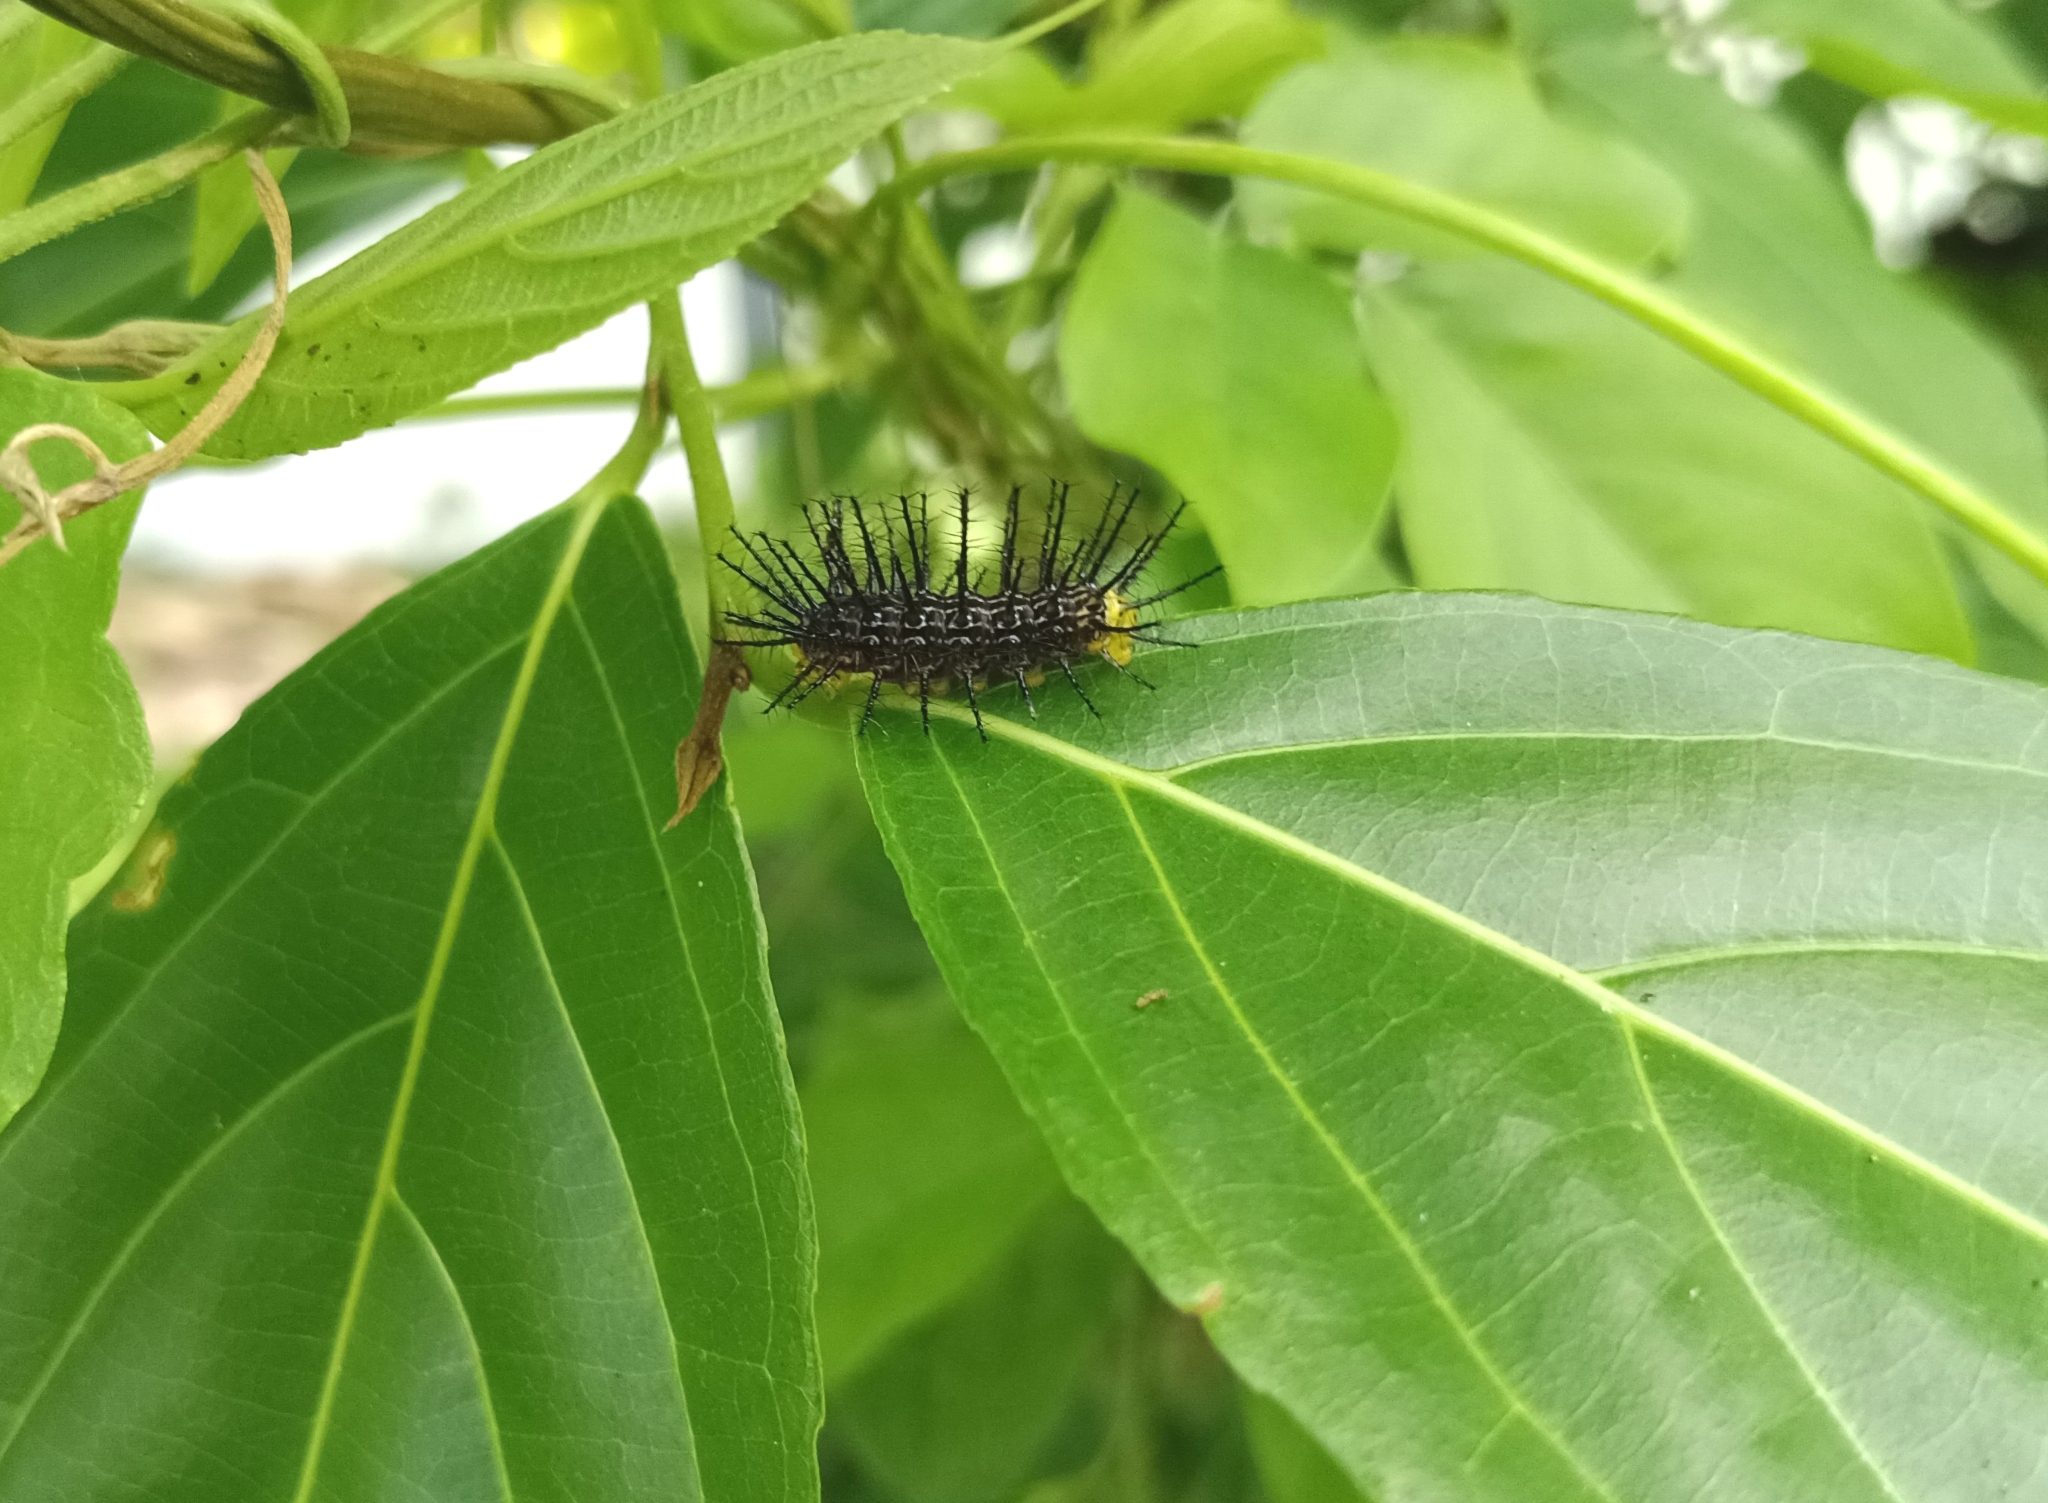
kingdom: Animalia
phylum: Arthropoda
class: Insecta
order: Lepidoptera
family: Nymphalidae
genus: Cirrochroa
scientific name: Cirrochroa thais
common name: Tamil yeoman
